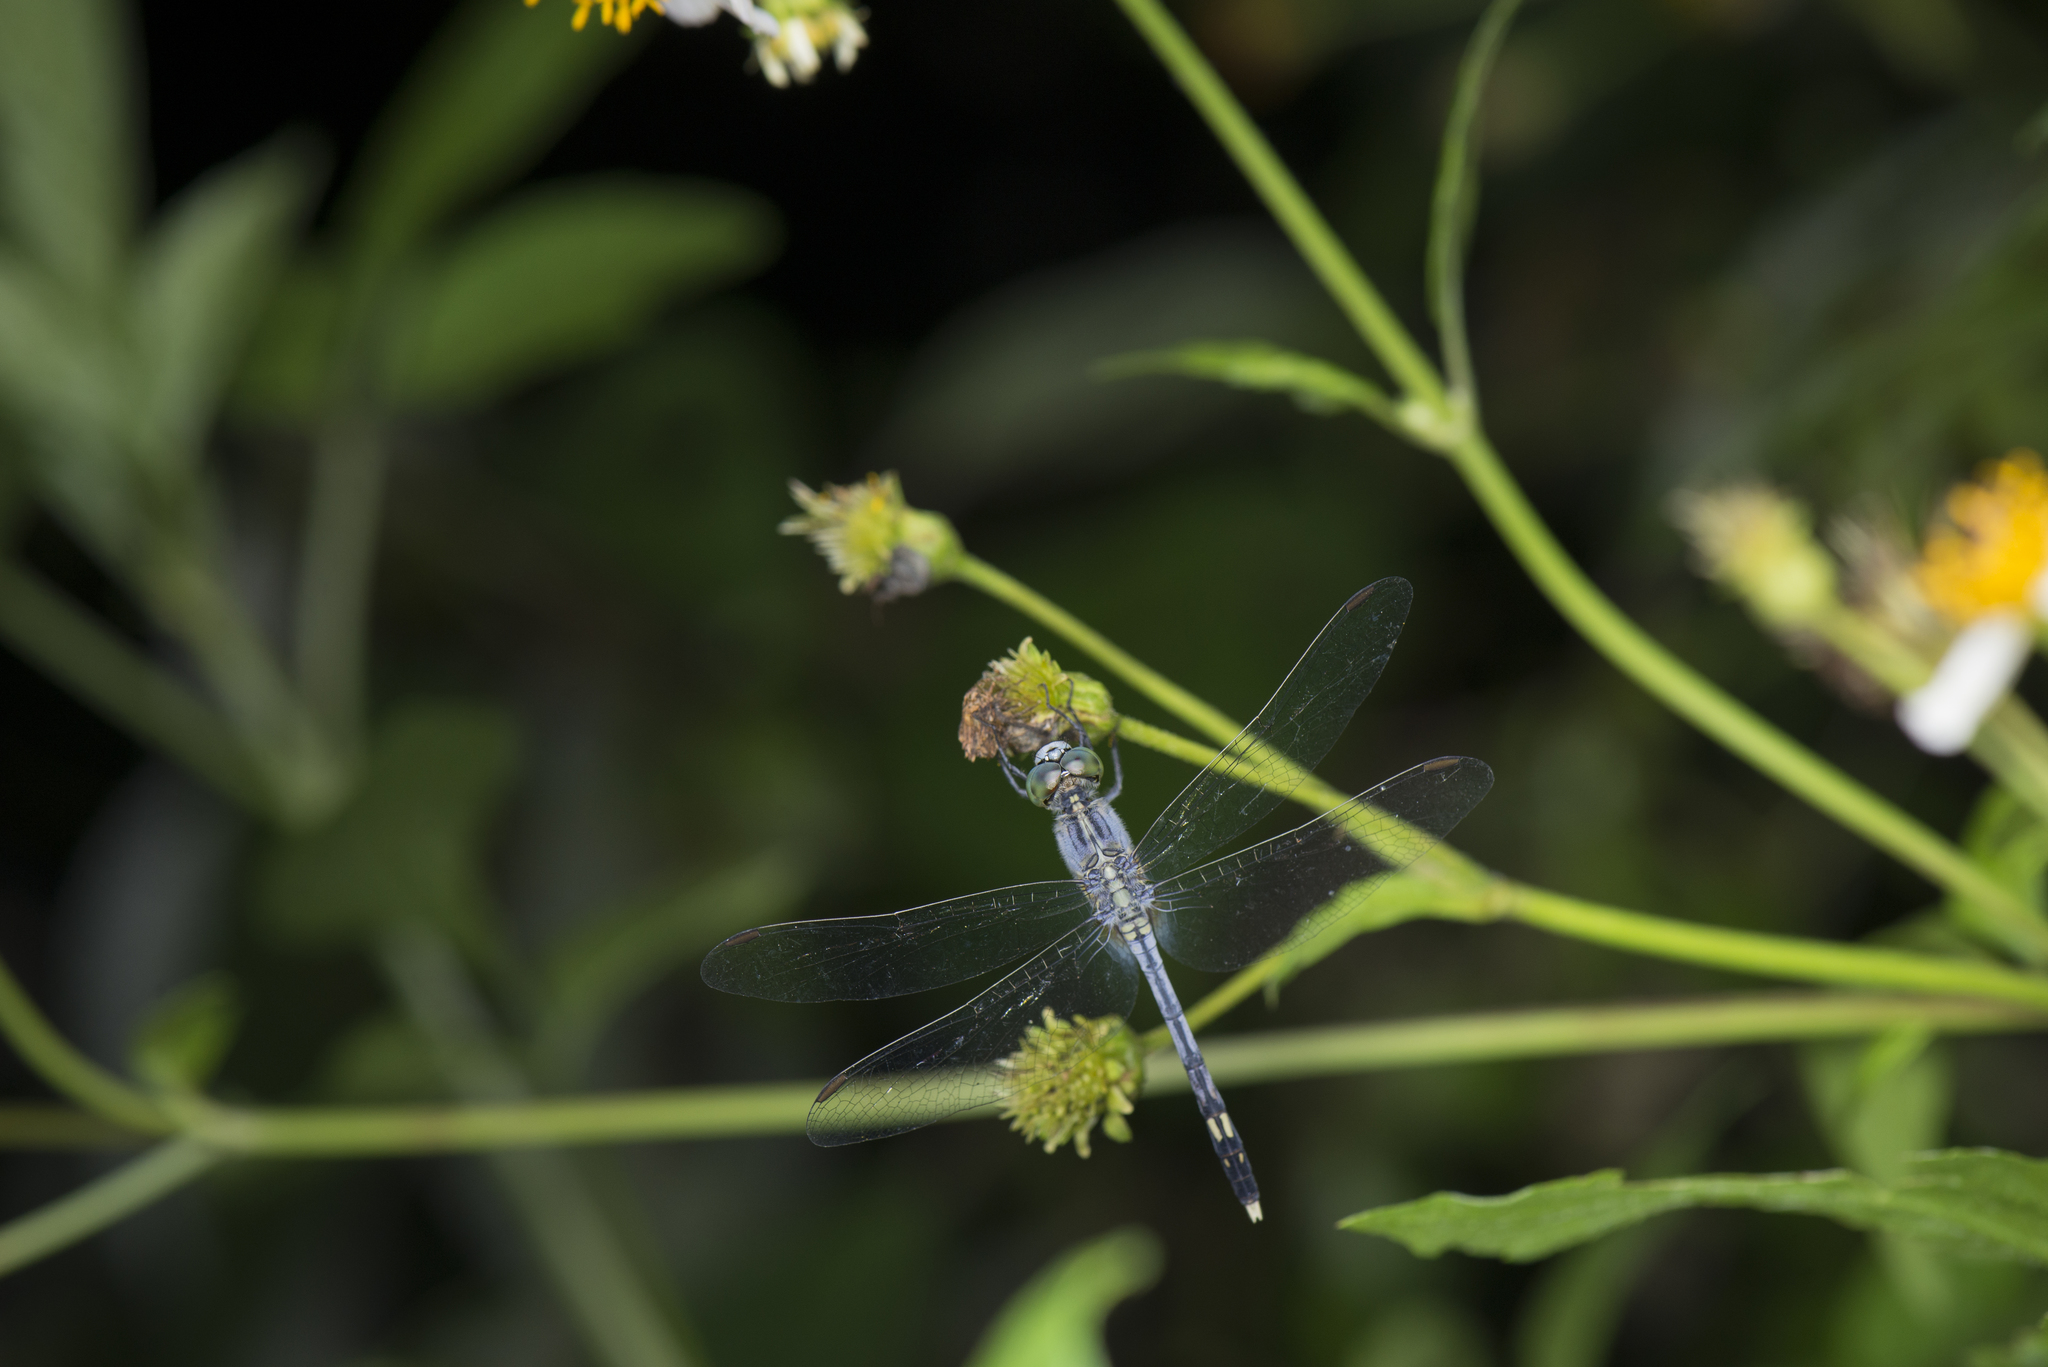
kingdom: Animalia
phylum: Arthropoda
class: Insecta
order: Odonata
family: Libellulidae
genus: Diplacodes
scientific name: Diplacodes trivialis
